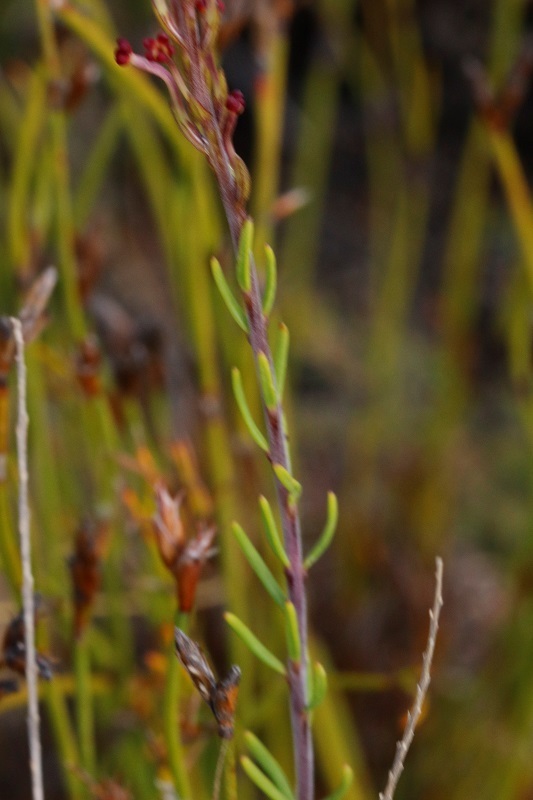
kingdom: Plantae
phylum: Tracheophyta
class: Magnoliopsida
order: Lamiales
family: Scrophulariaceae
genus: Microdon
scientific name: Microdon dubius
